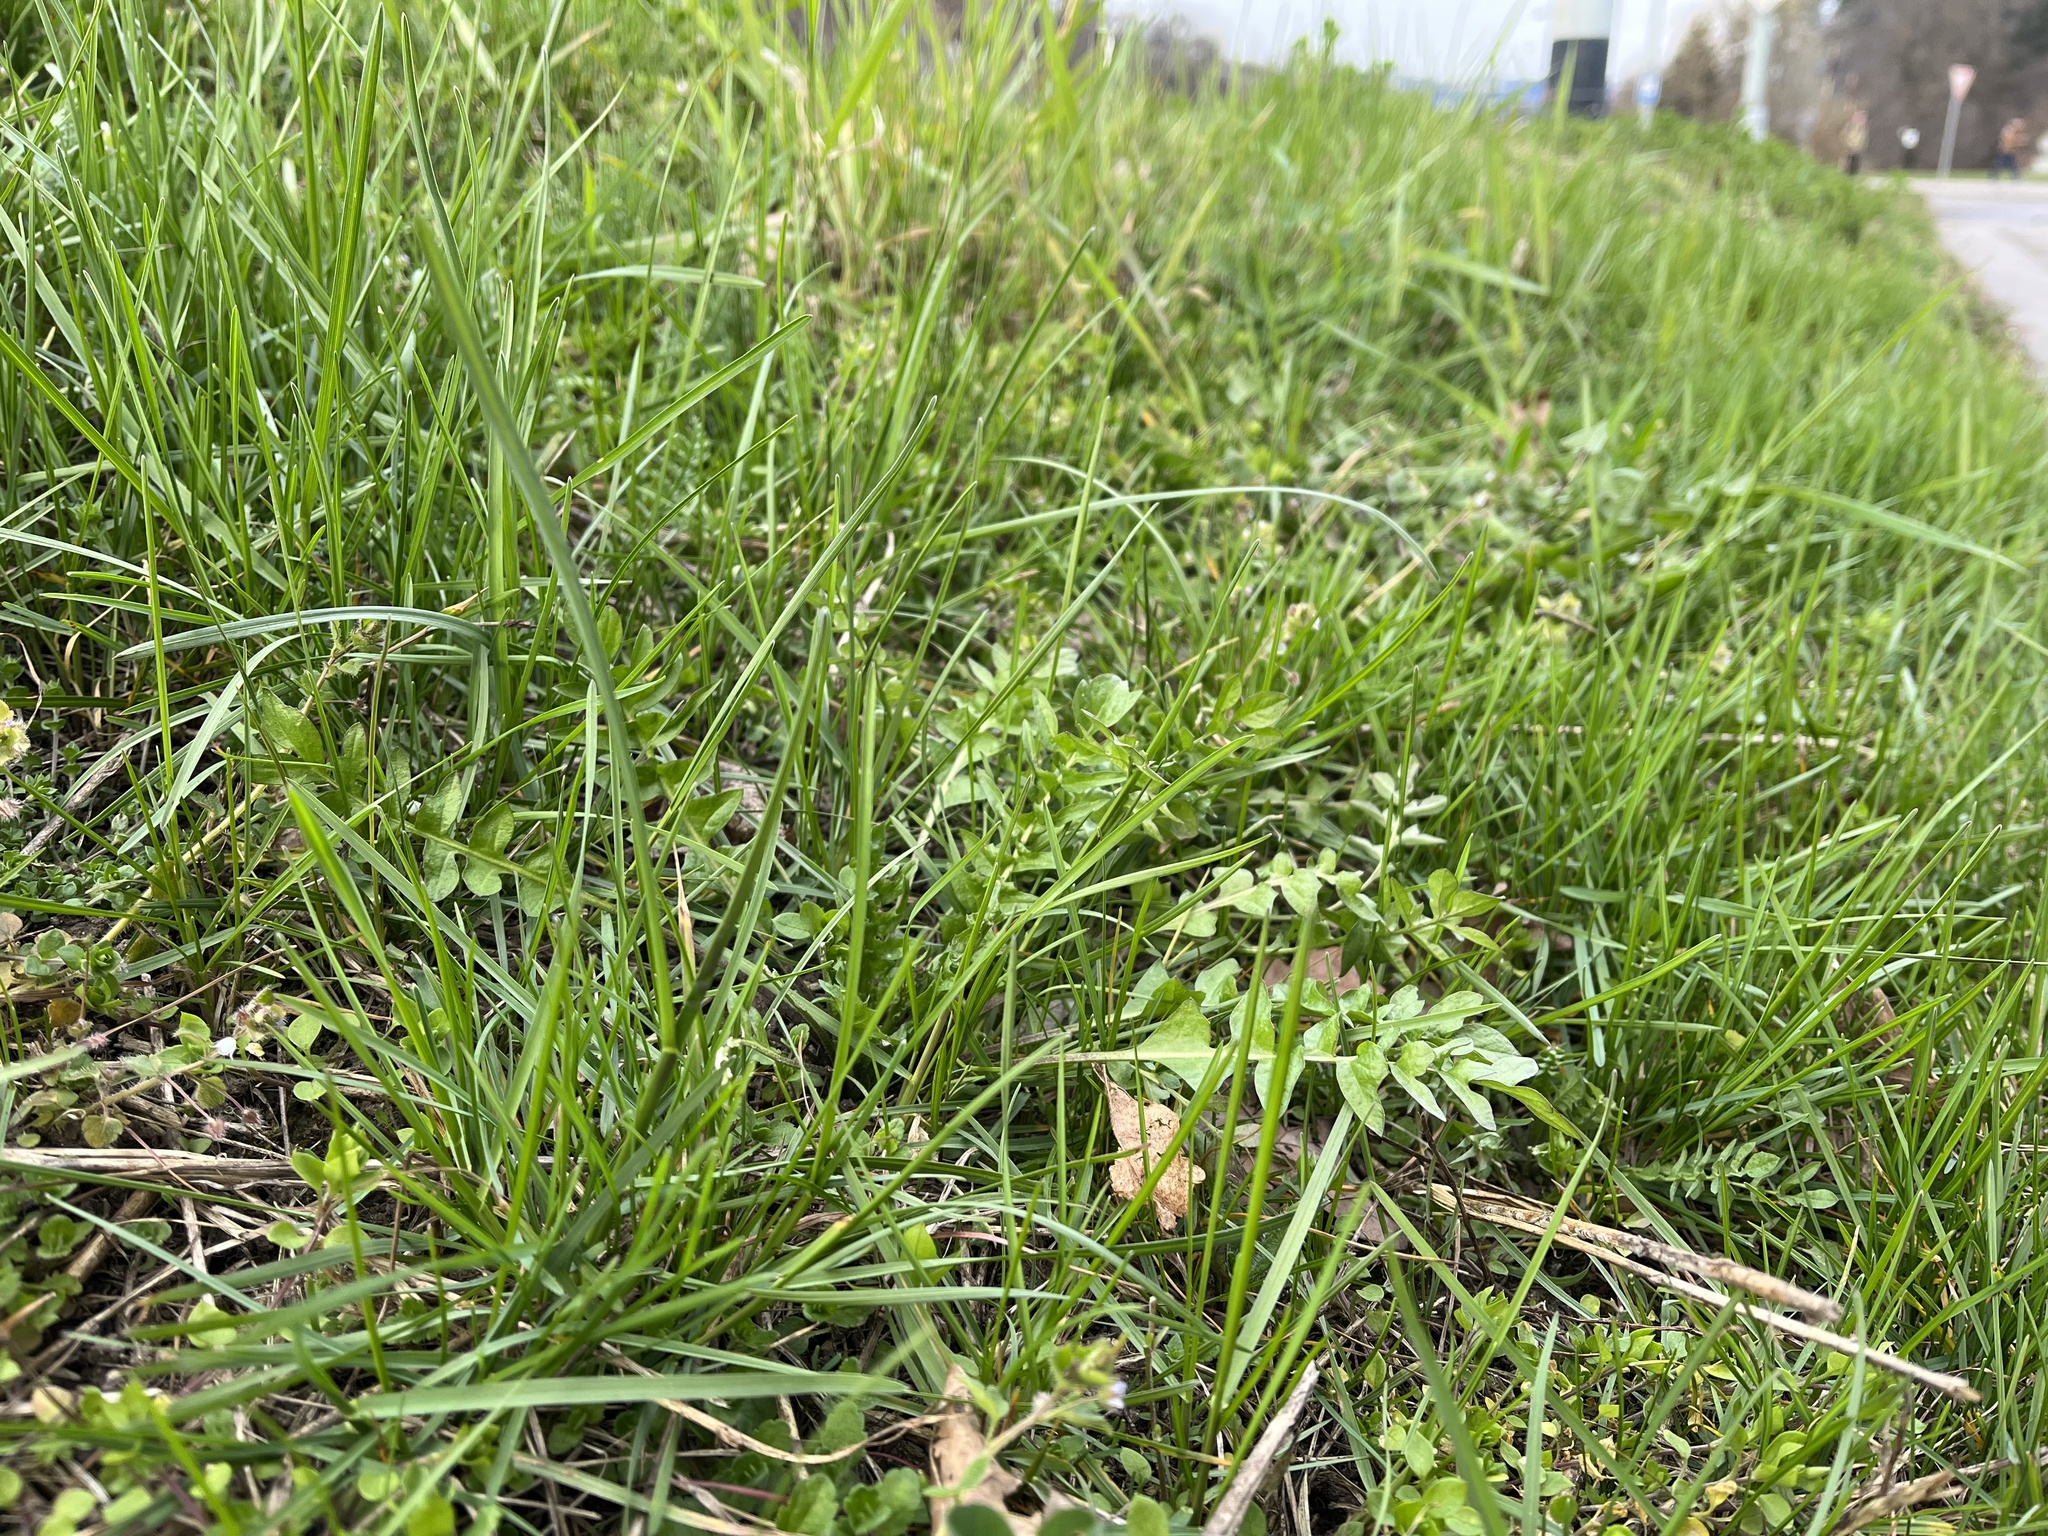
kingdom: Plantae
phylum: Tracheophyta
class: Magnoliopsida
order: Brassicales
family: Brassicaceae
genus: Capsella
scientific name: Capsella bursa-pastoris
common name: Shepherd's purse
